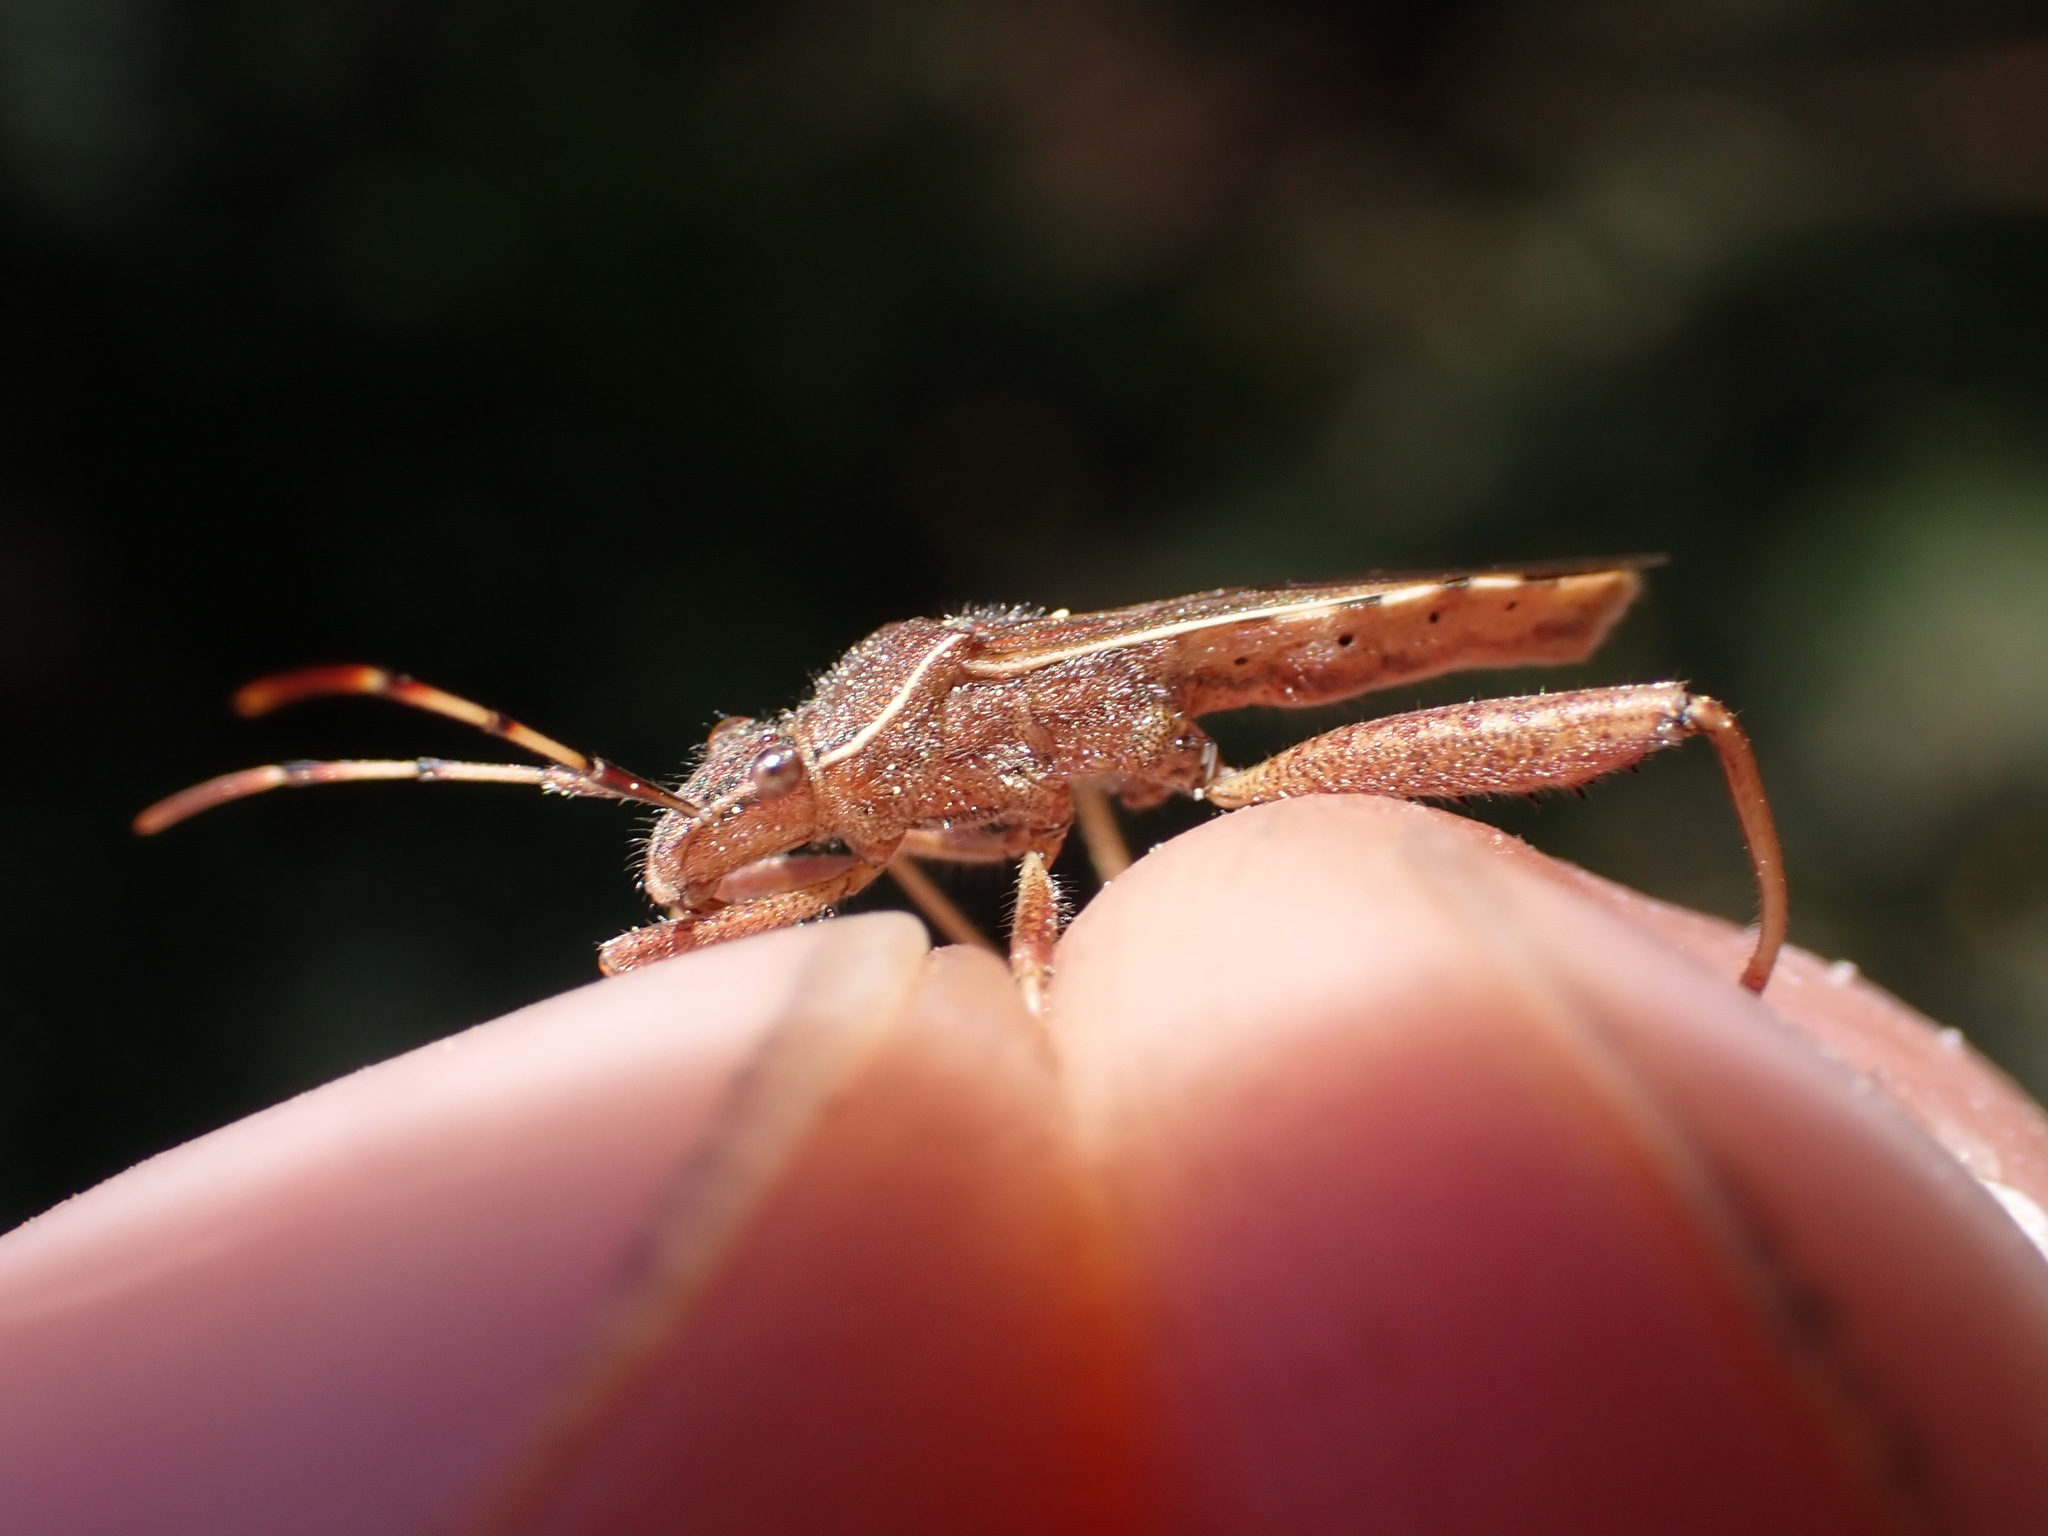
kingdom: Animalia
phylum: Arthropoda
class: Insecta
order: Hemiptera
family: Alydidae
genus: Camptopus
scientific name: Camptopus lateralis
